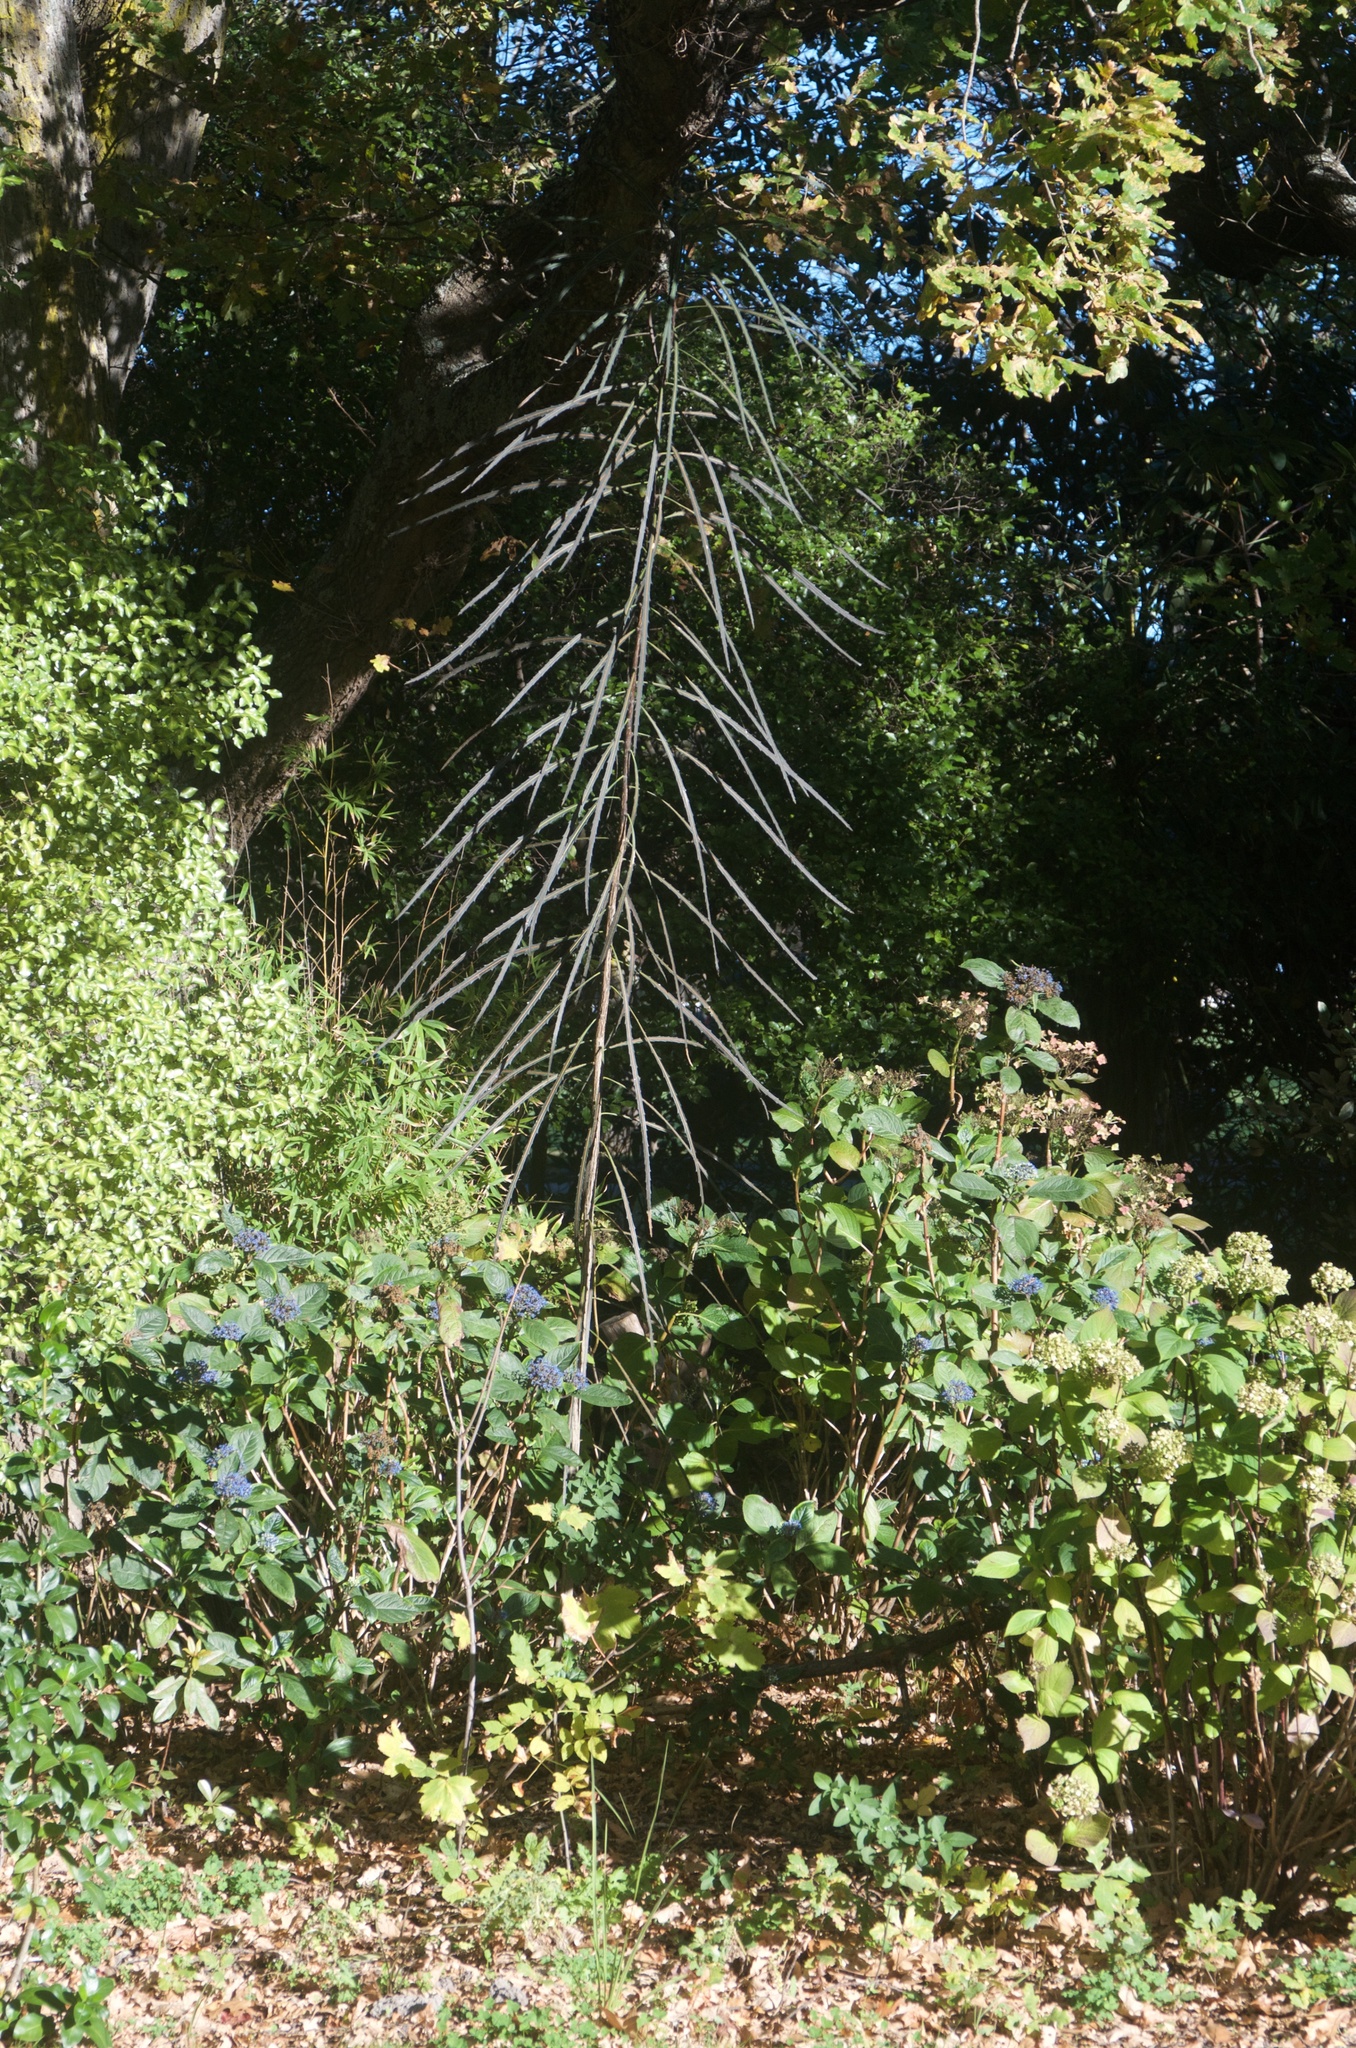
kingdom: Plantae
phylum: Tracheophyta
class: Magnoliopsida
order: Apiales
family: Araliaceae
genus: Pseudopanax
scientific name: Pseudopanax crassifolius
